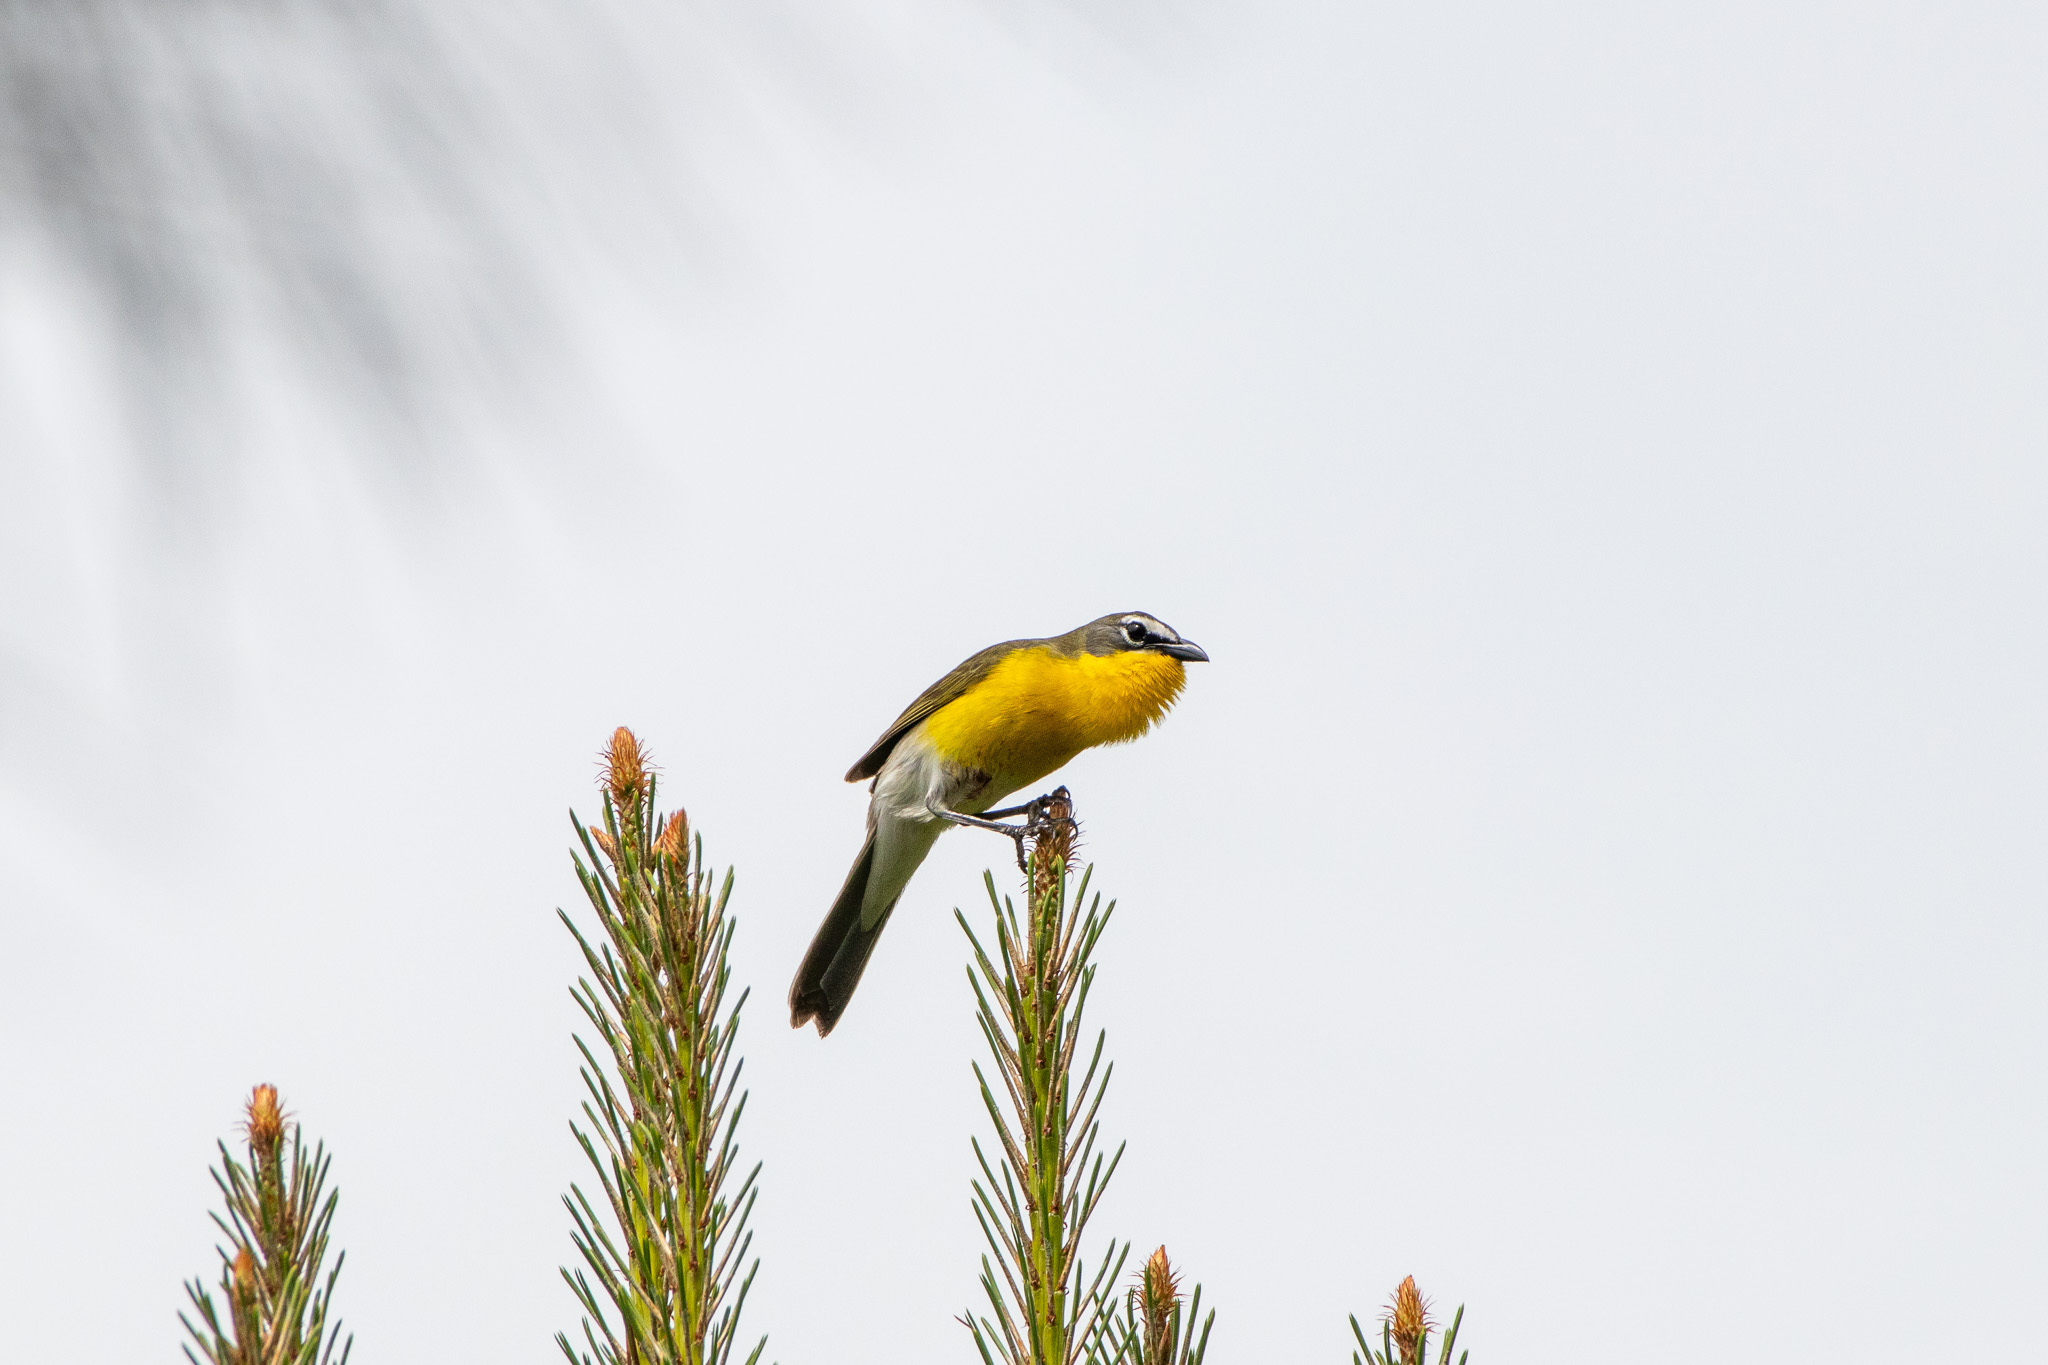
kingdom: Animalia
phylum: Chordata
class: Aves
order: Passeriformes
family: Parulidae
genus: Icteria
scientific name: Icteria virens
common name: Yellow-breasted chat
